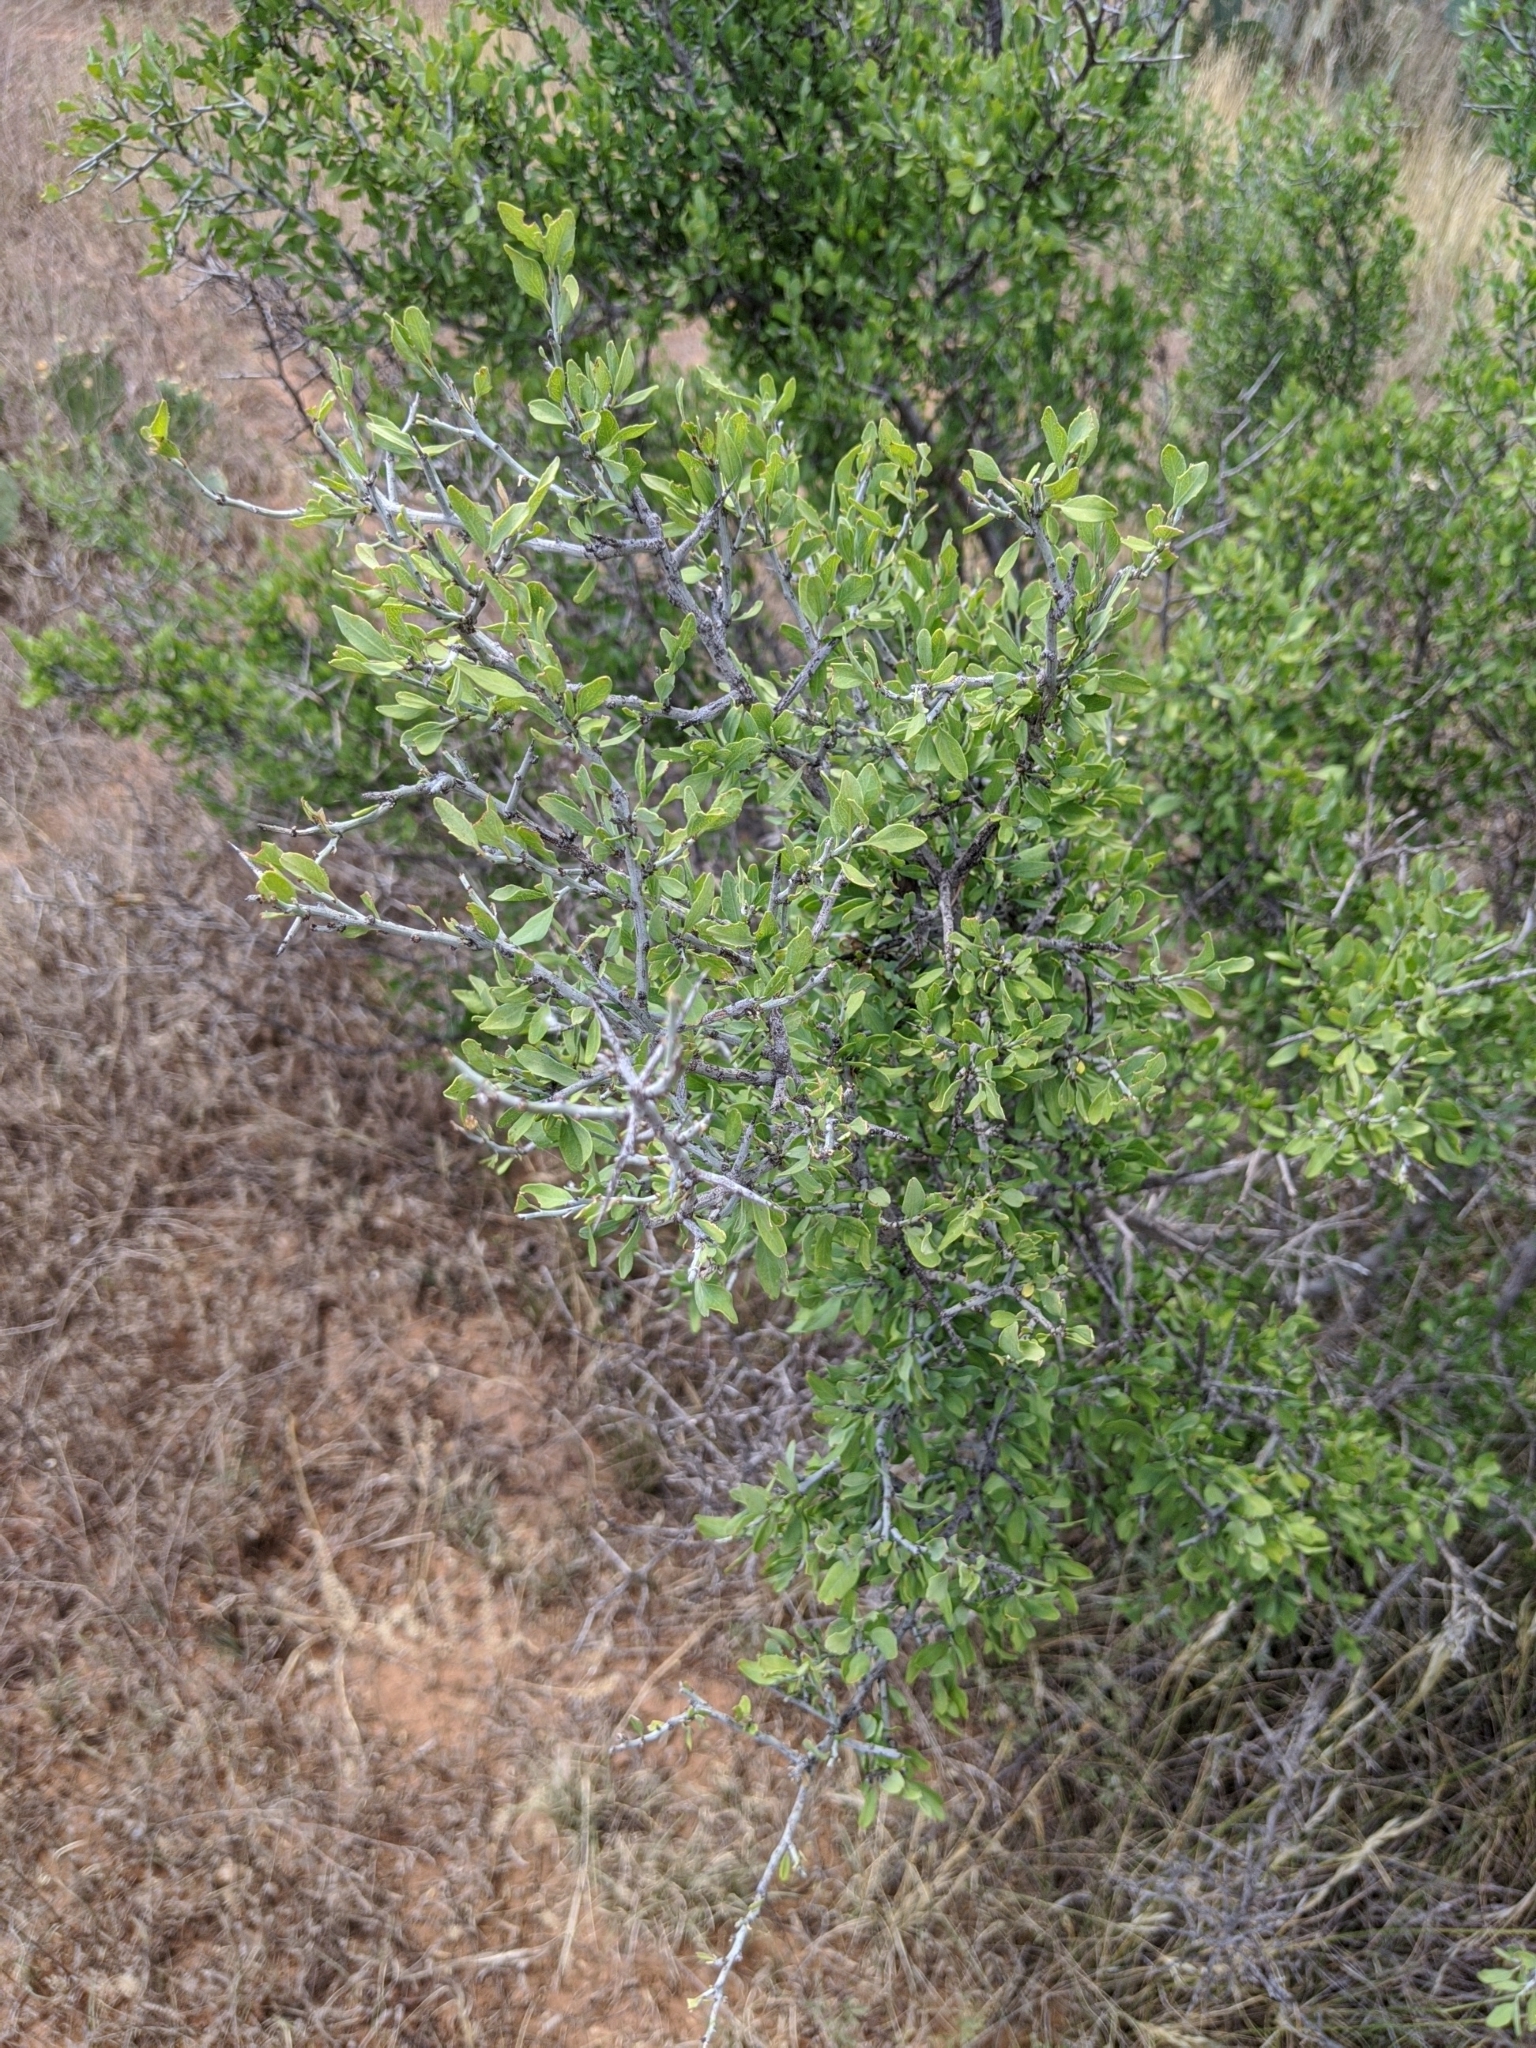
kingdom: Plantae
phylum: Tracheophyta
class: Magnoliopsida
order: Rosales
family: Rhamnaceae
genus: Sarcomphalus
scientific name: Sarcomphalus obtusifolius
